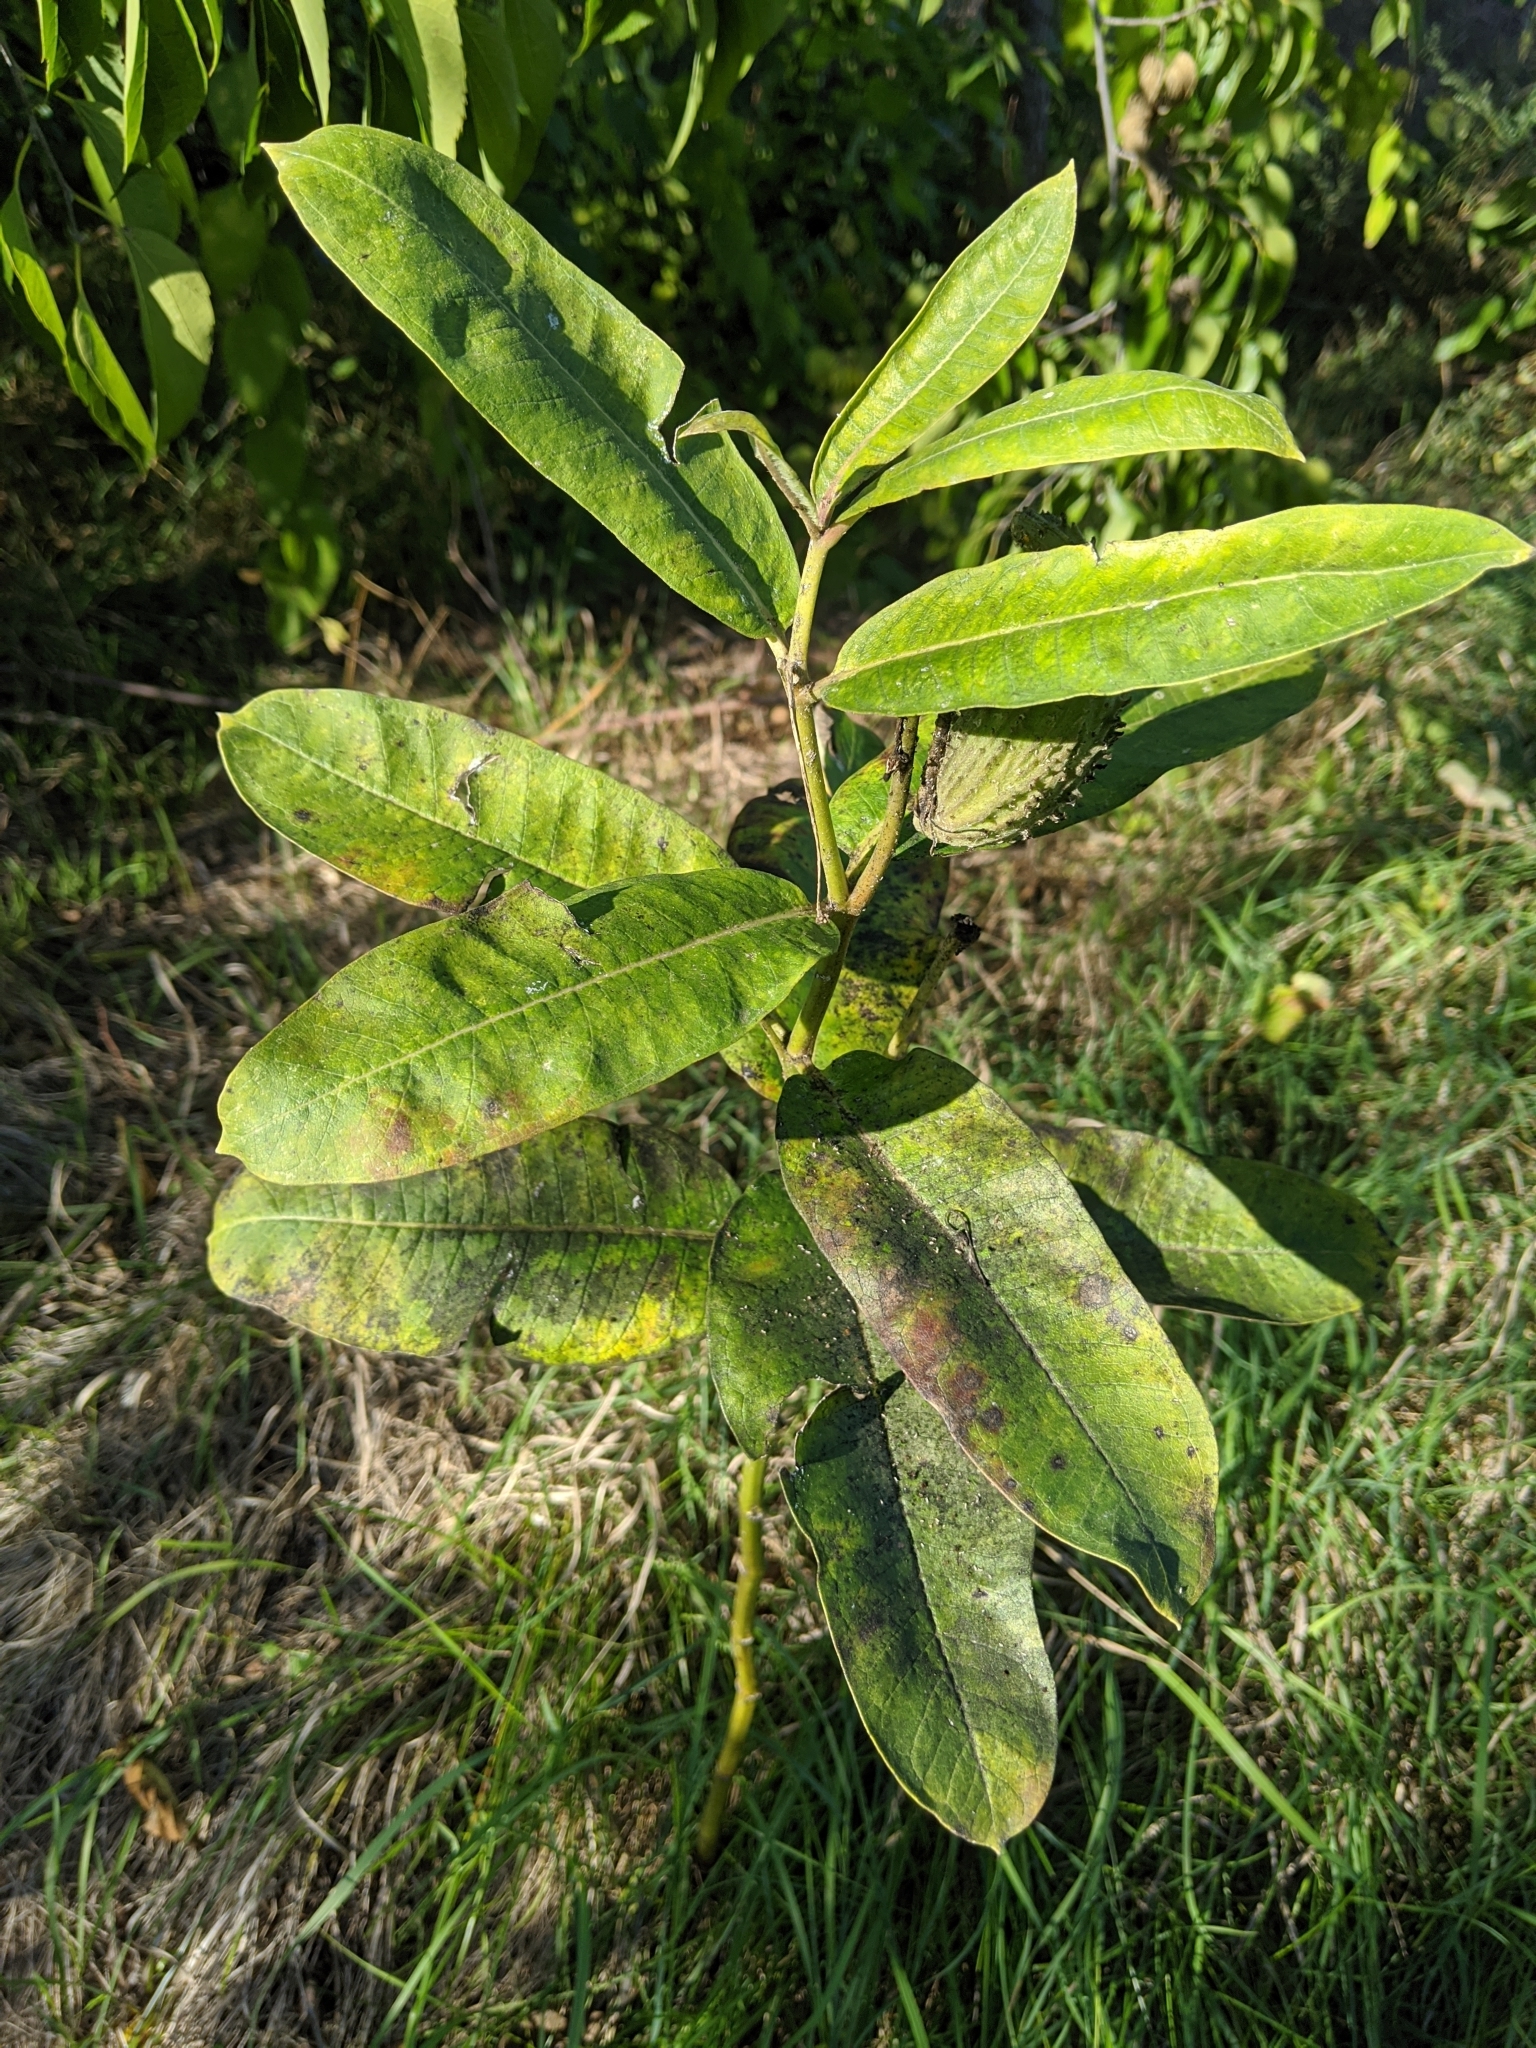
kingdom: Plantae
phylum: Tracheophyta
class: Magnoliopsida
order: Gentianales
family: Apocynaceae
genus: Asclepias
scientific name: Asclepias syriaca
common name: Common milkweed
